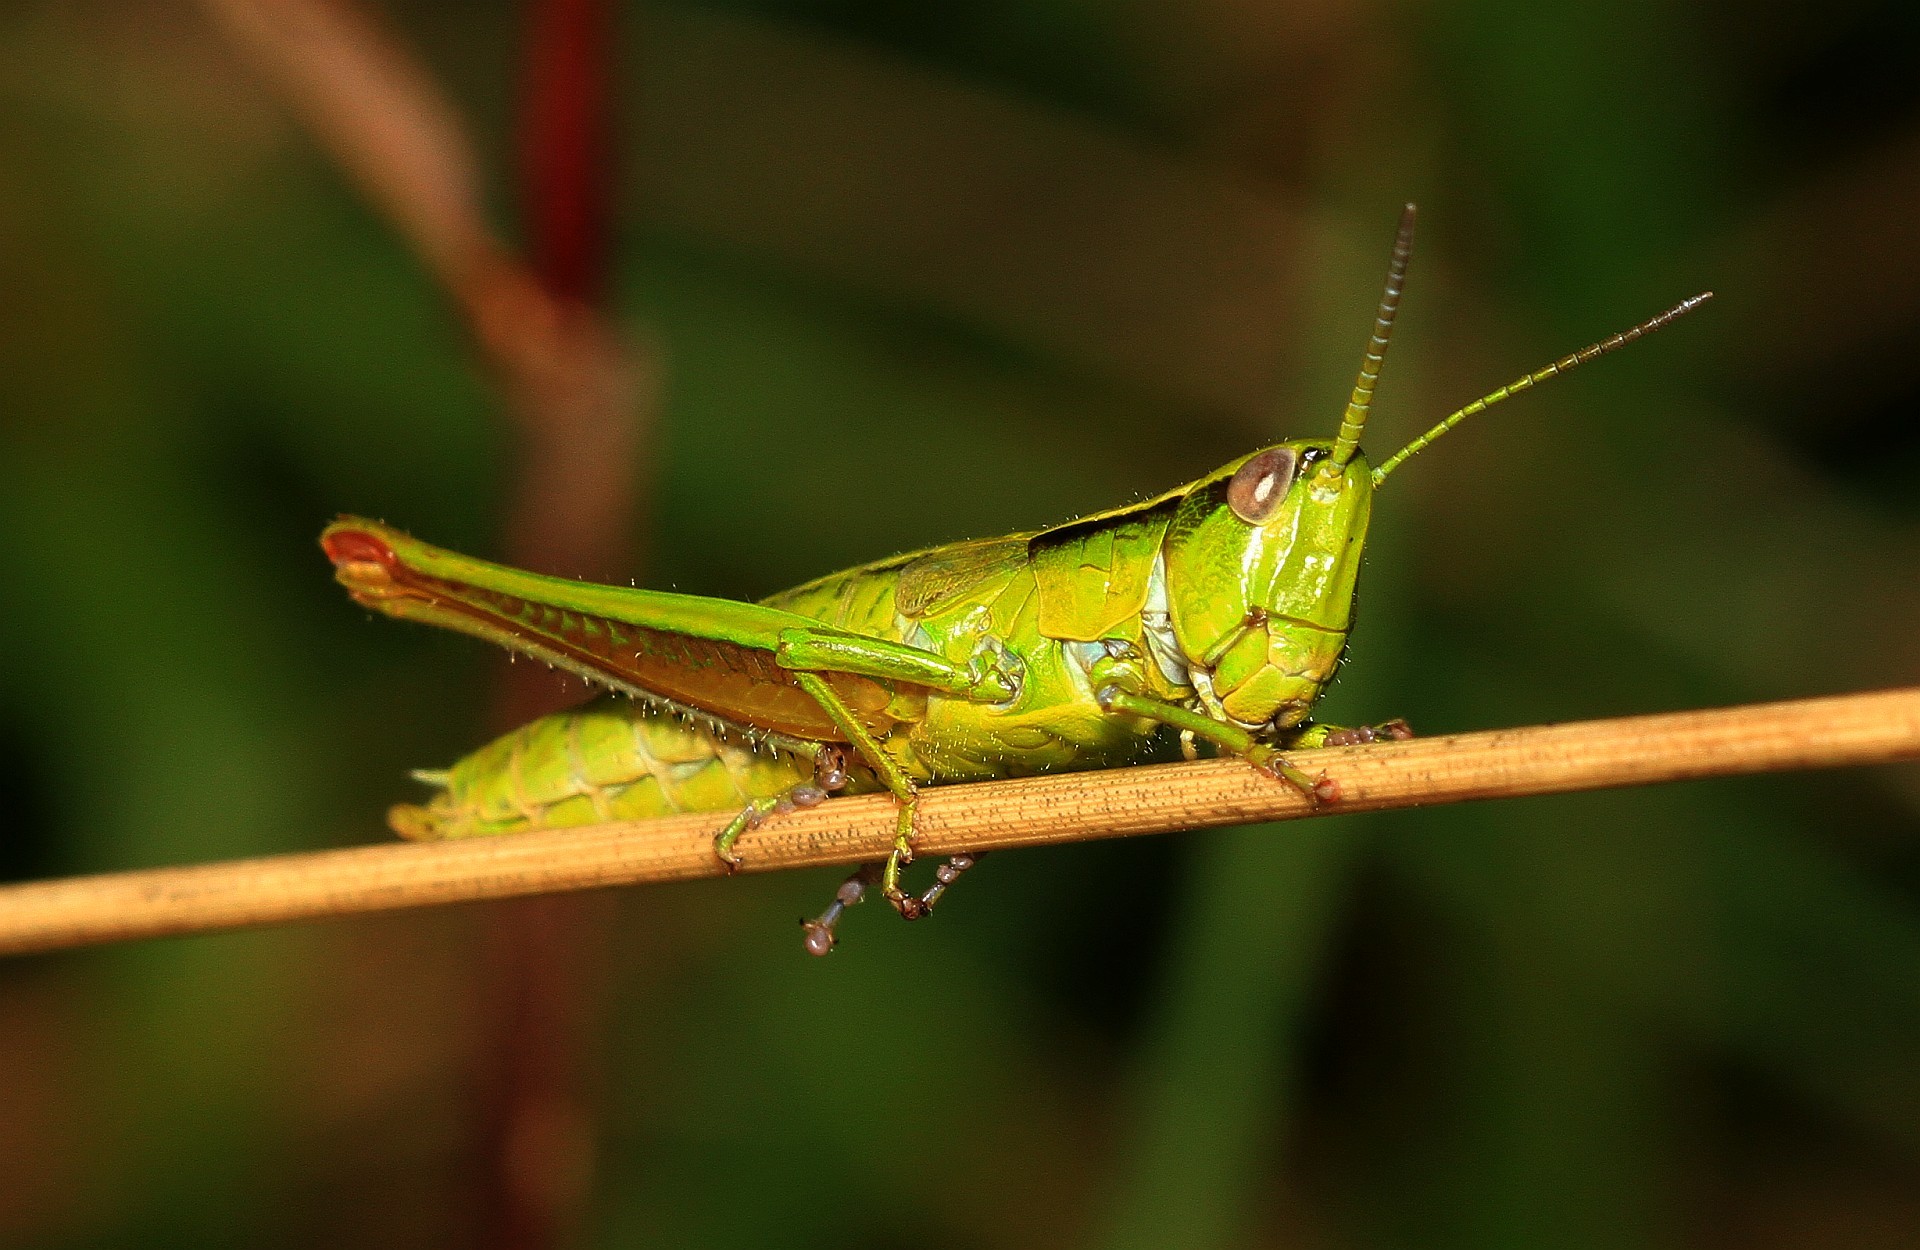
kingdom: Animalia
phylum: Arthropoda
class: Insecta
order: Orthoptera
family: Acrididae
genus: Euthystira
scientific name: Euthystira brachyptera
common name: Small gold grasshopper
